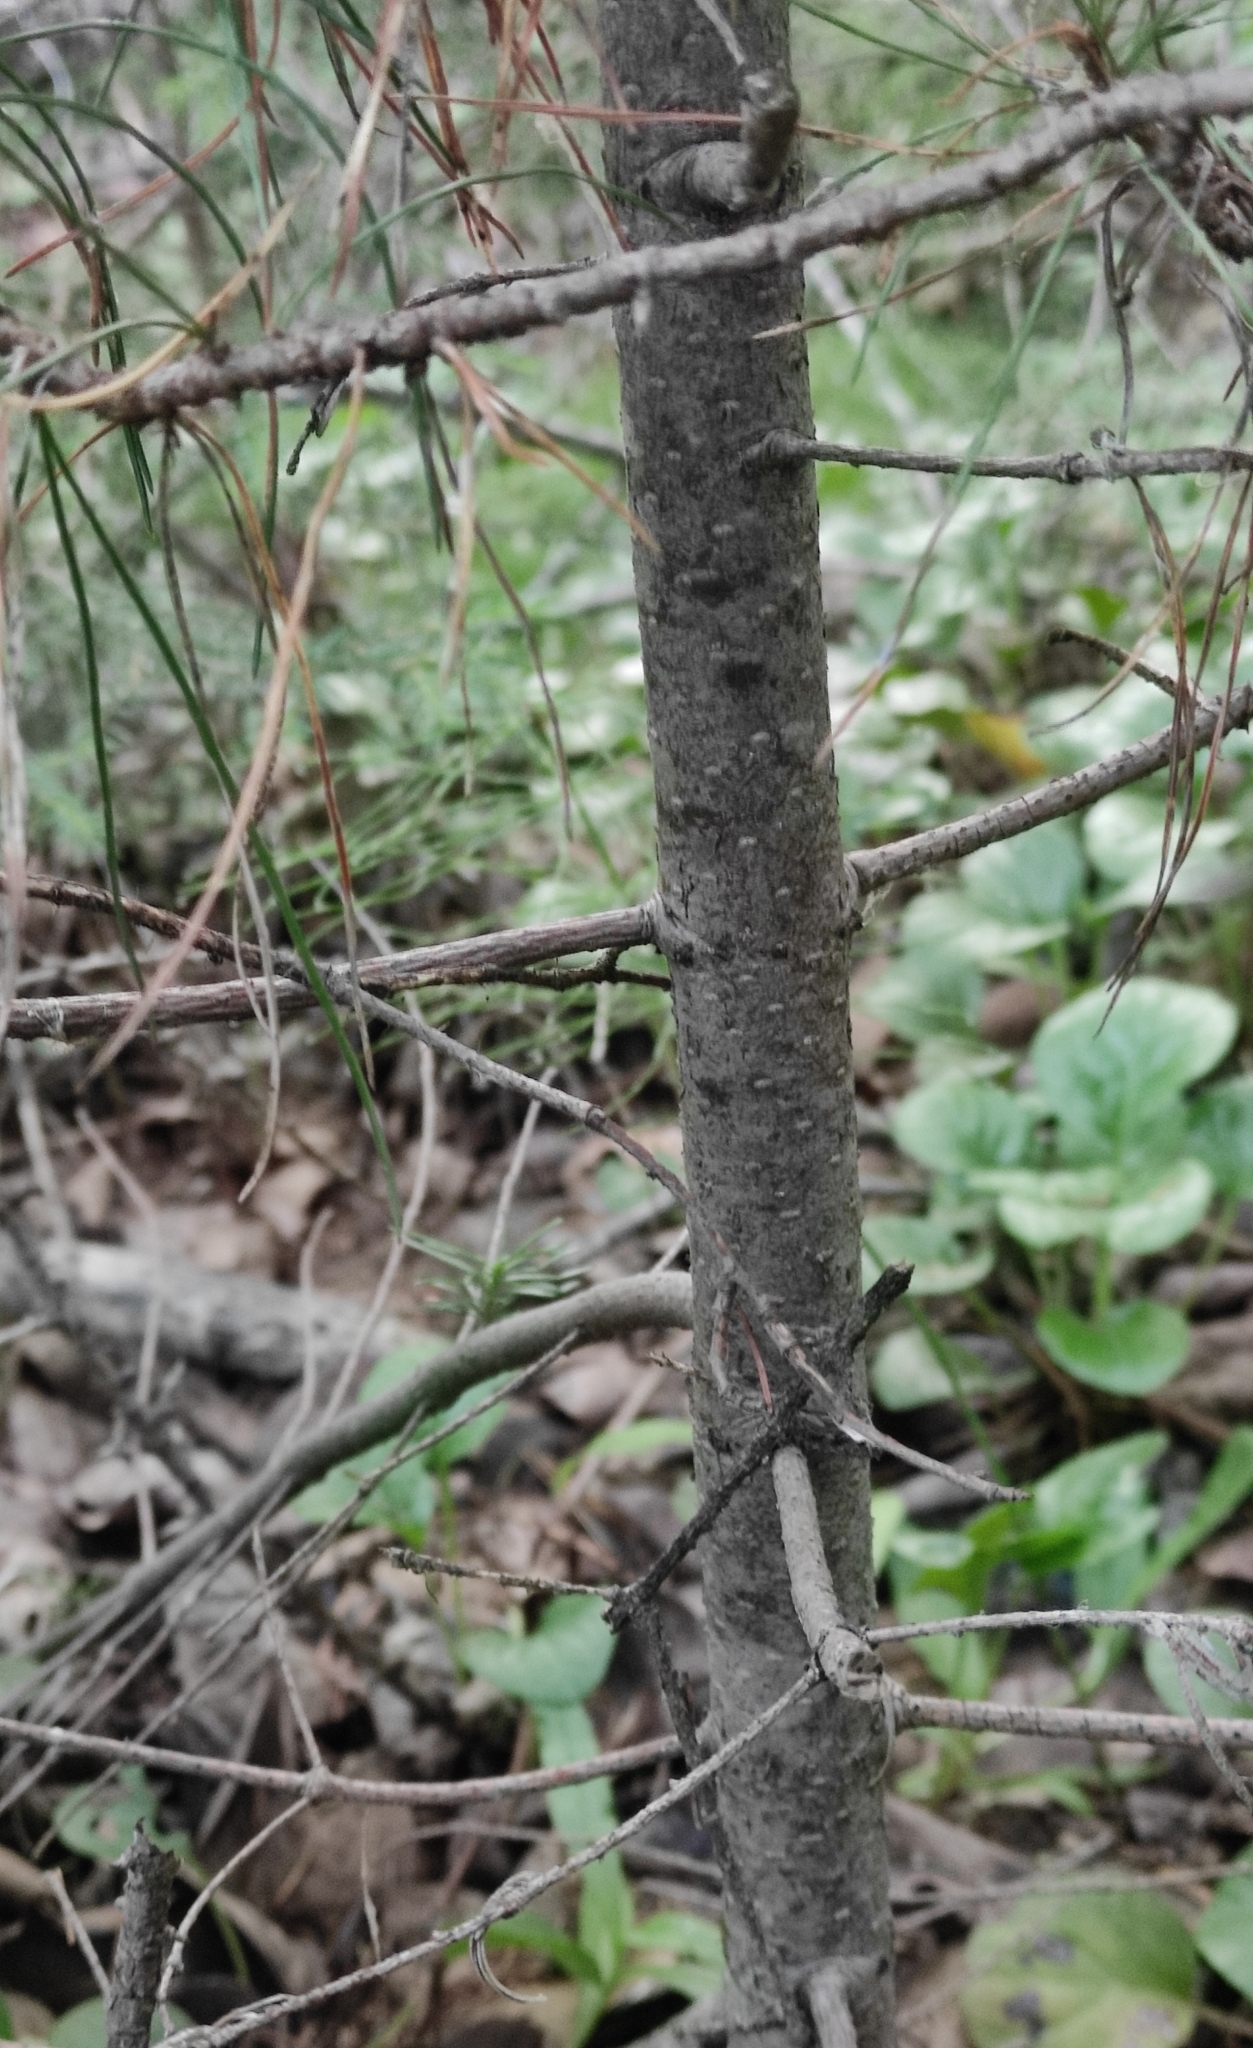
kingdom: Plantae
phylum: Tracheophyta
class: Pinopsida
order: Pinales
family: Pinaceae
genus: Abies
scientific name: Abies sibirica
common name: Siberian fir
